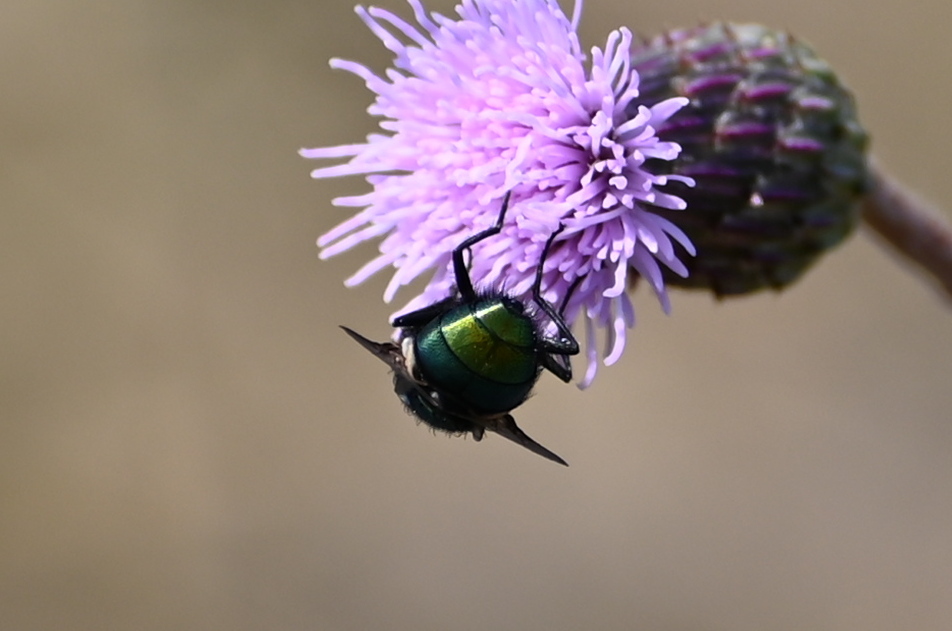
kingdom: Animalia
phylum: Arthropoda
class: Insecta
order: Diptera
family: Calliphoridae
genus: Lucilia
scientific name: Lucilia
